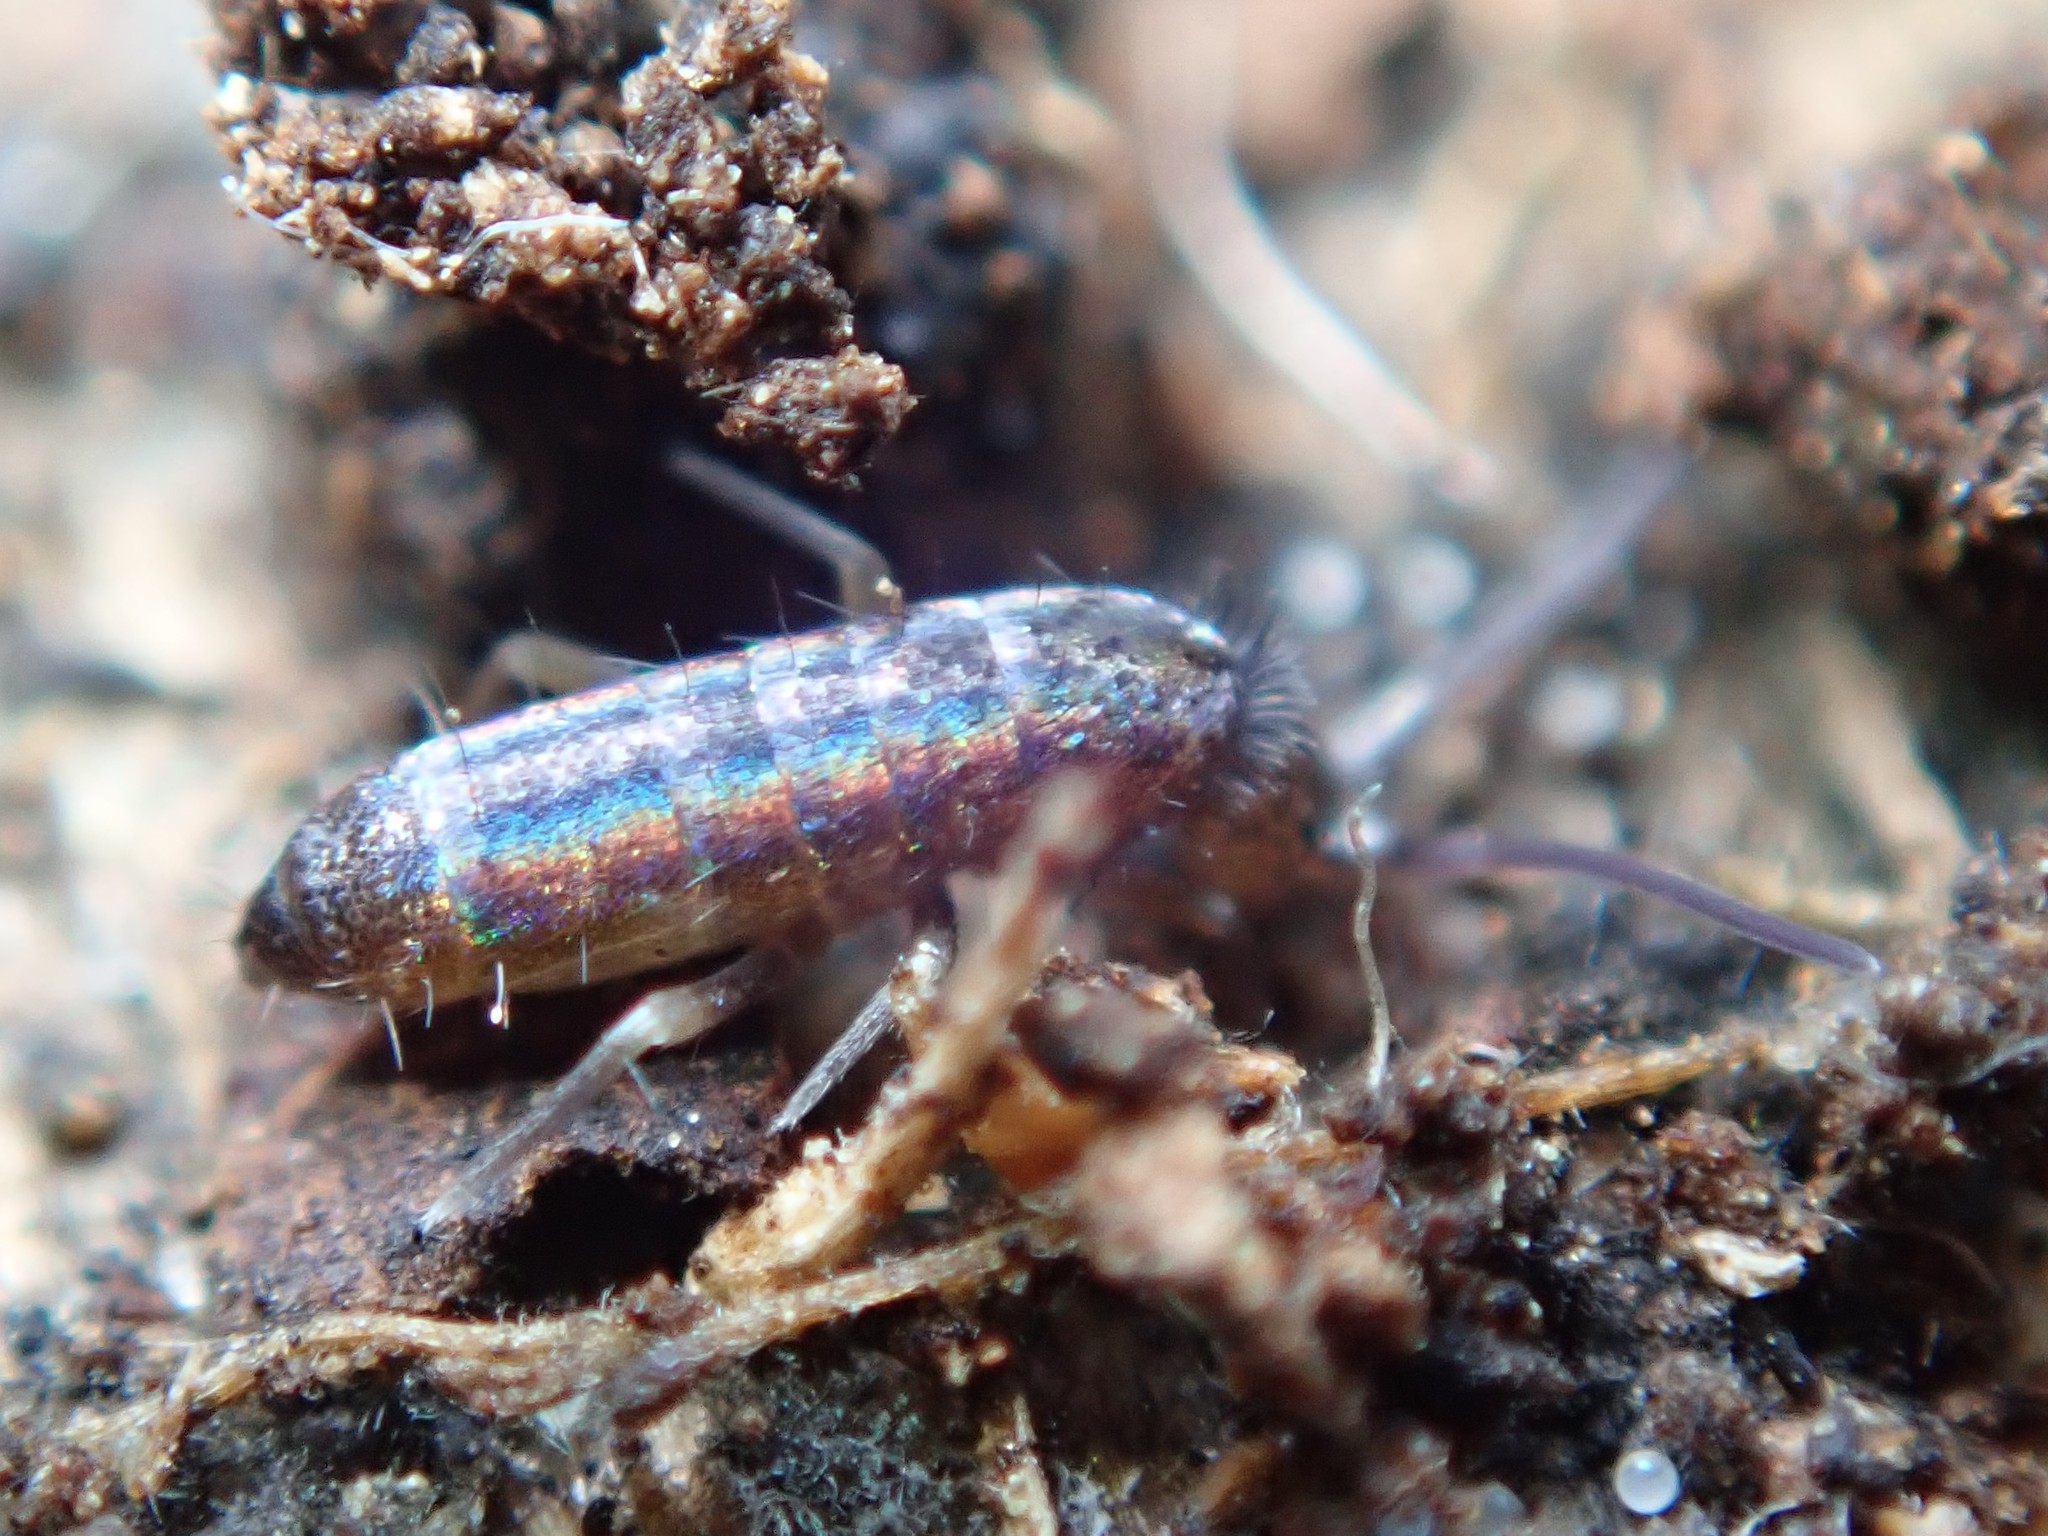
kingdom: Animalia
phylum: Arthropoda
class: Collembola
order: Entomobryomorpha
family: Tomoceridae
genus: Tomocerus
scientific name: Tomocerus vulgaris
